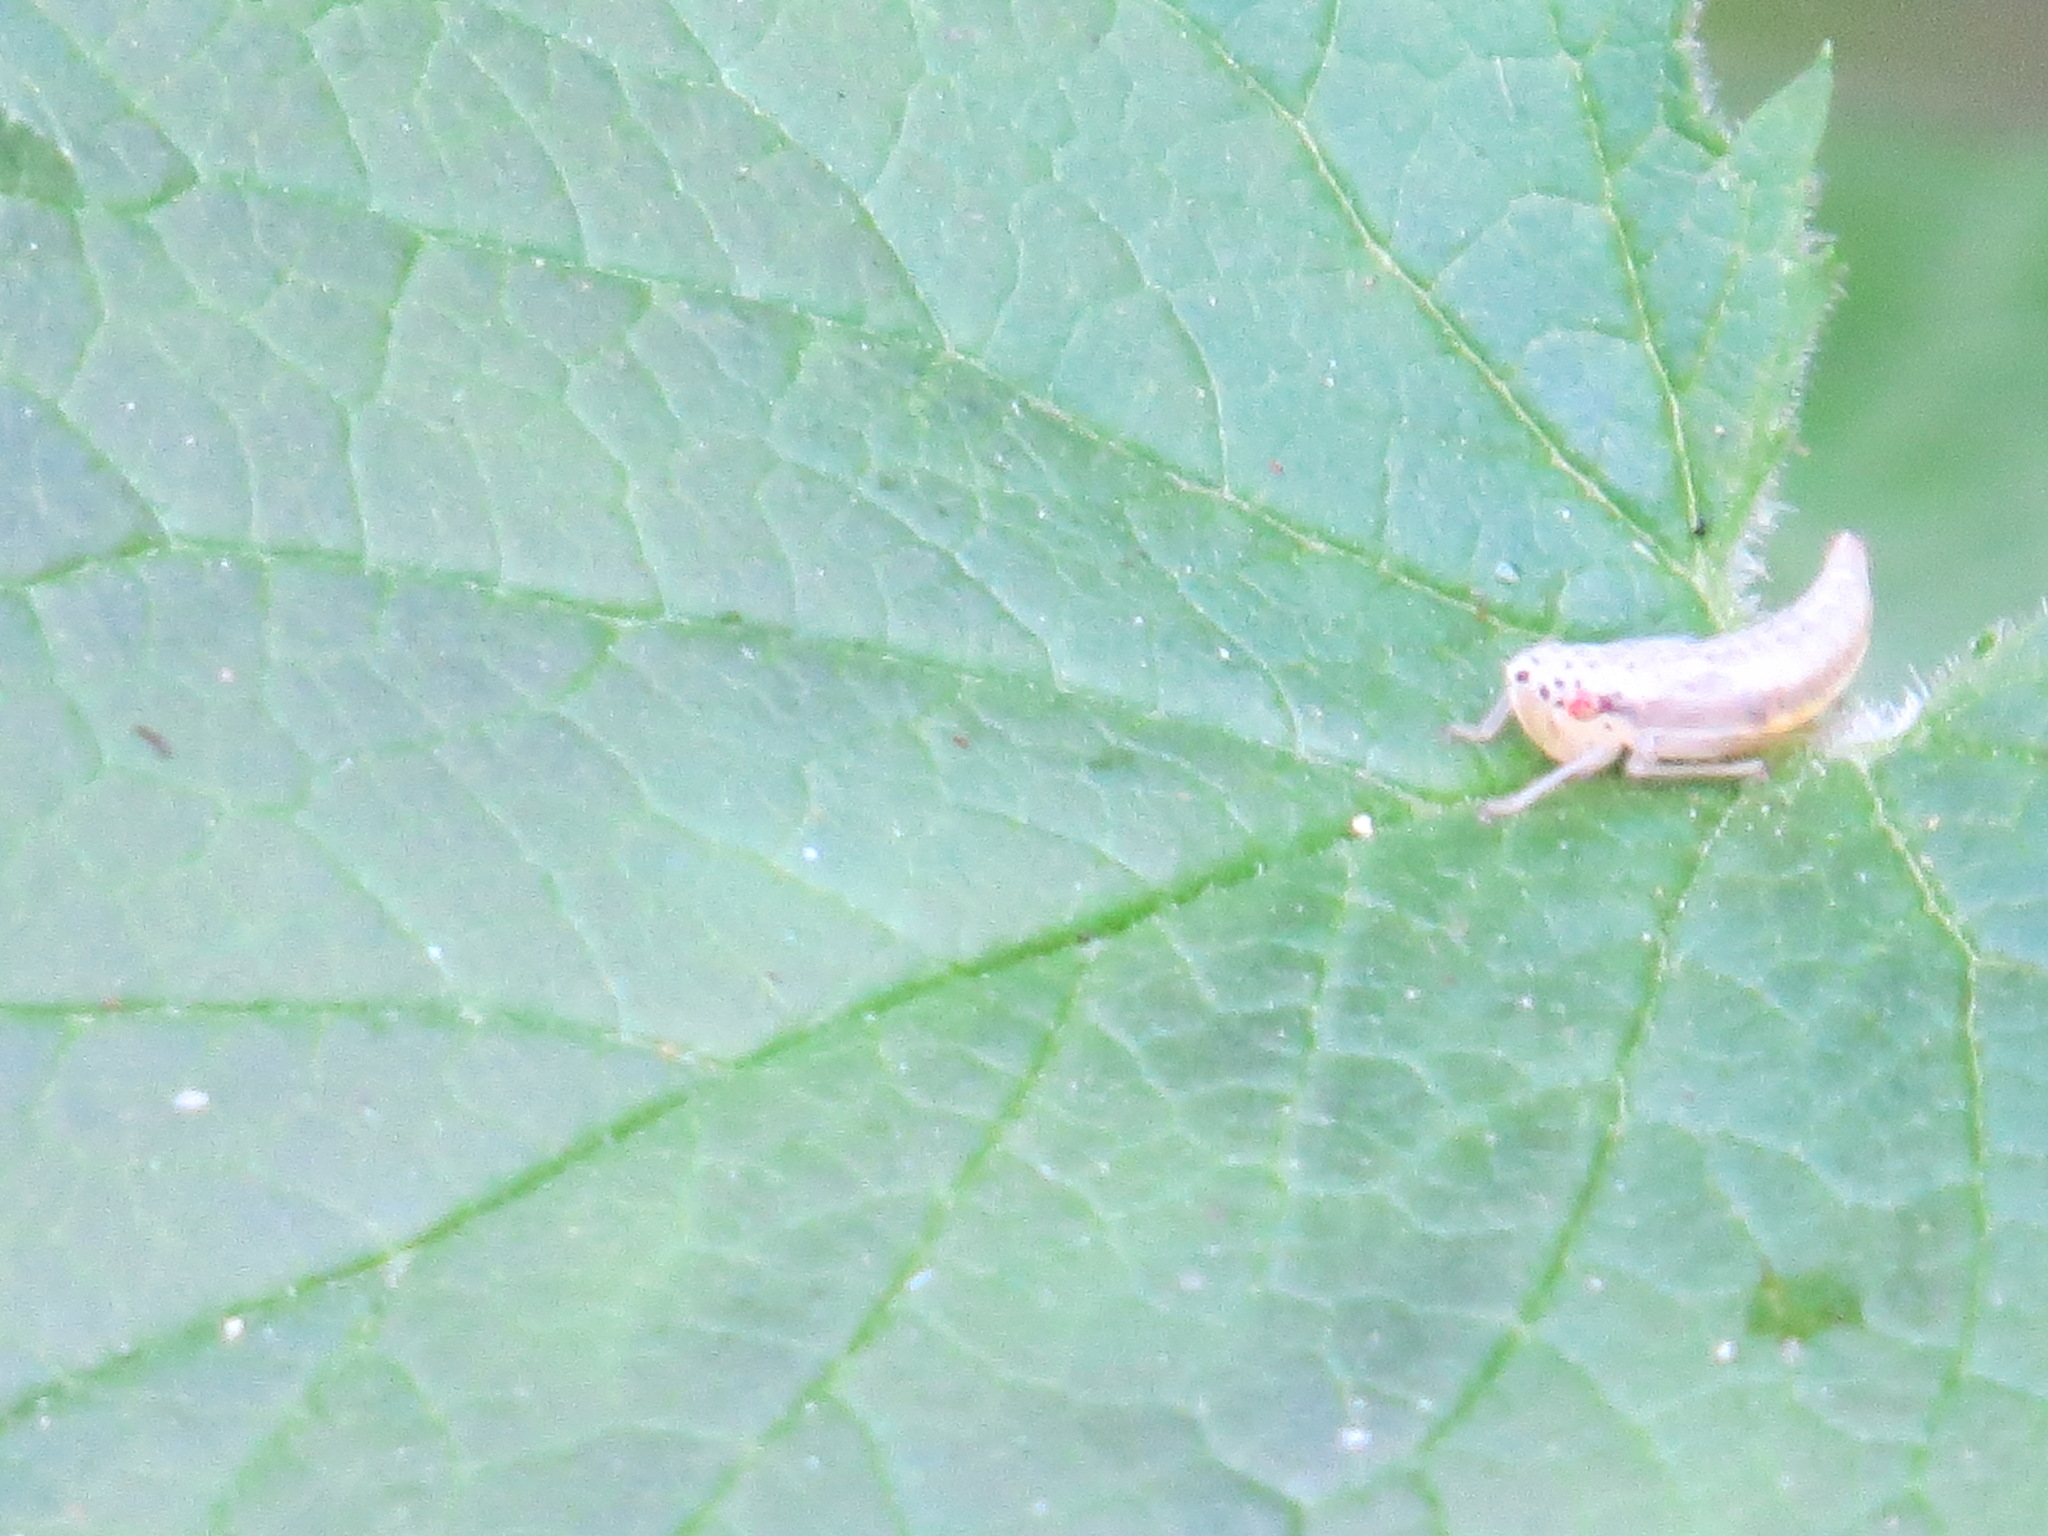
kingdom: Animalia
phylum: Arthropoda
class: Insecta
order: Hemiptera
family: Cicadellidae
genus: Pagaronia
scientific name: Pagaronia triunata
